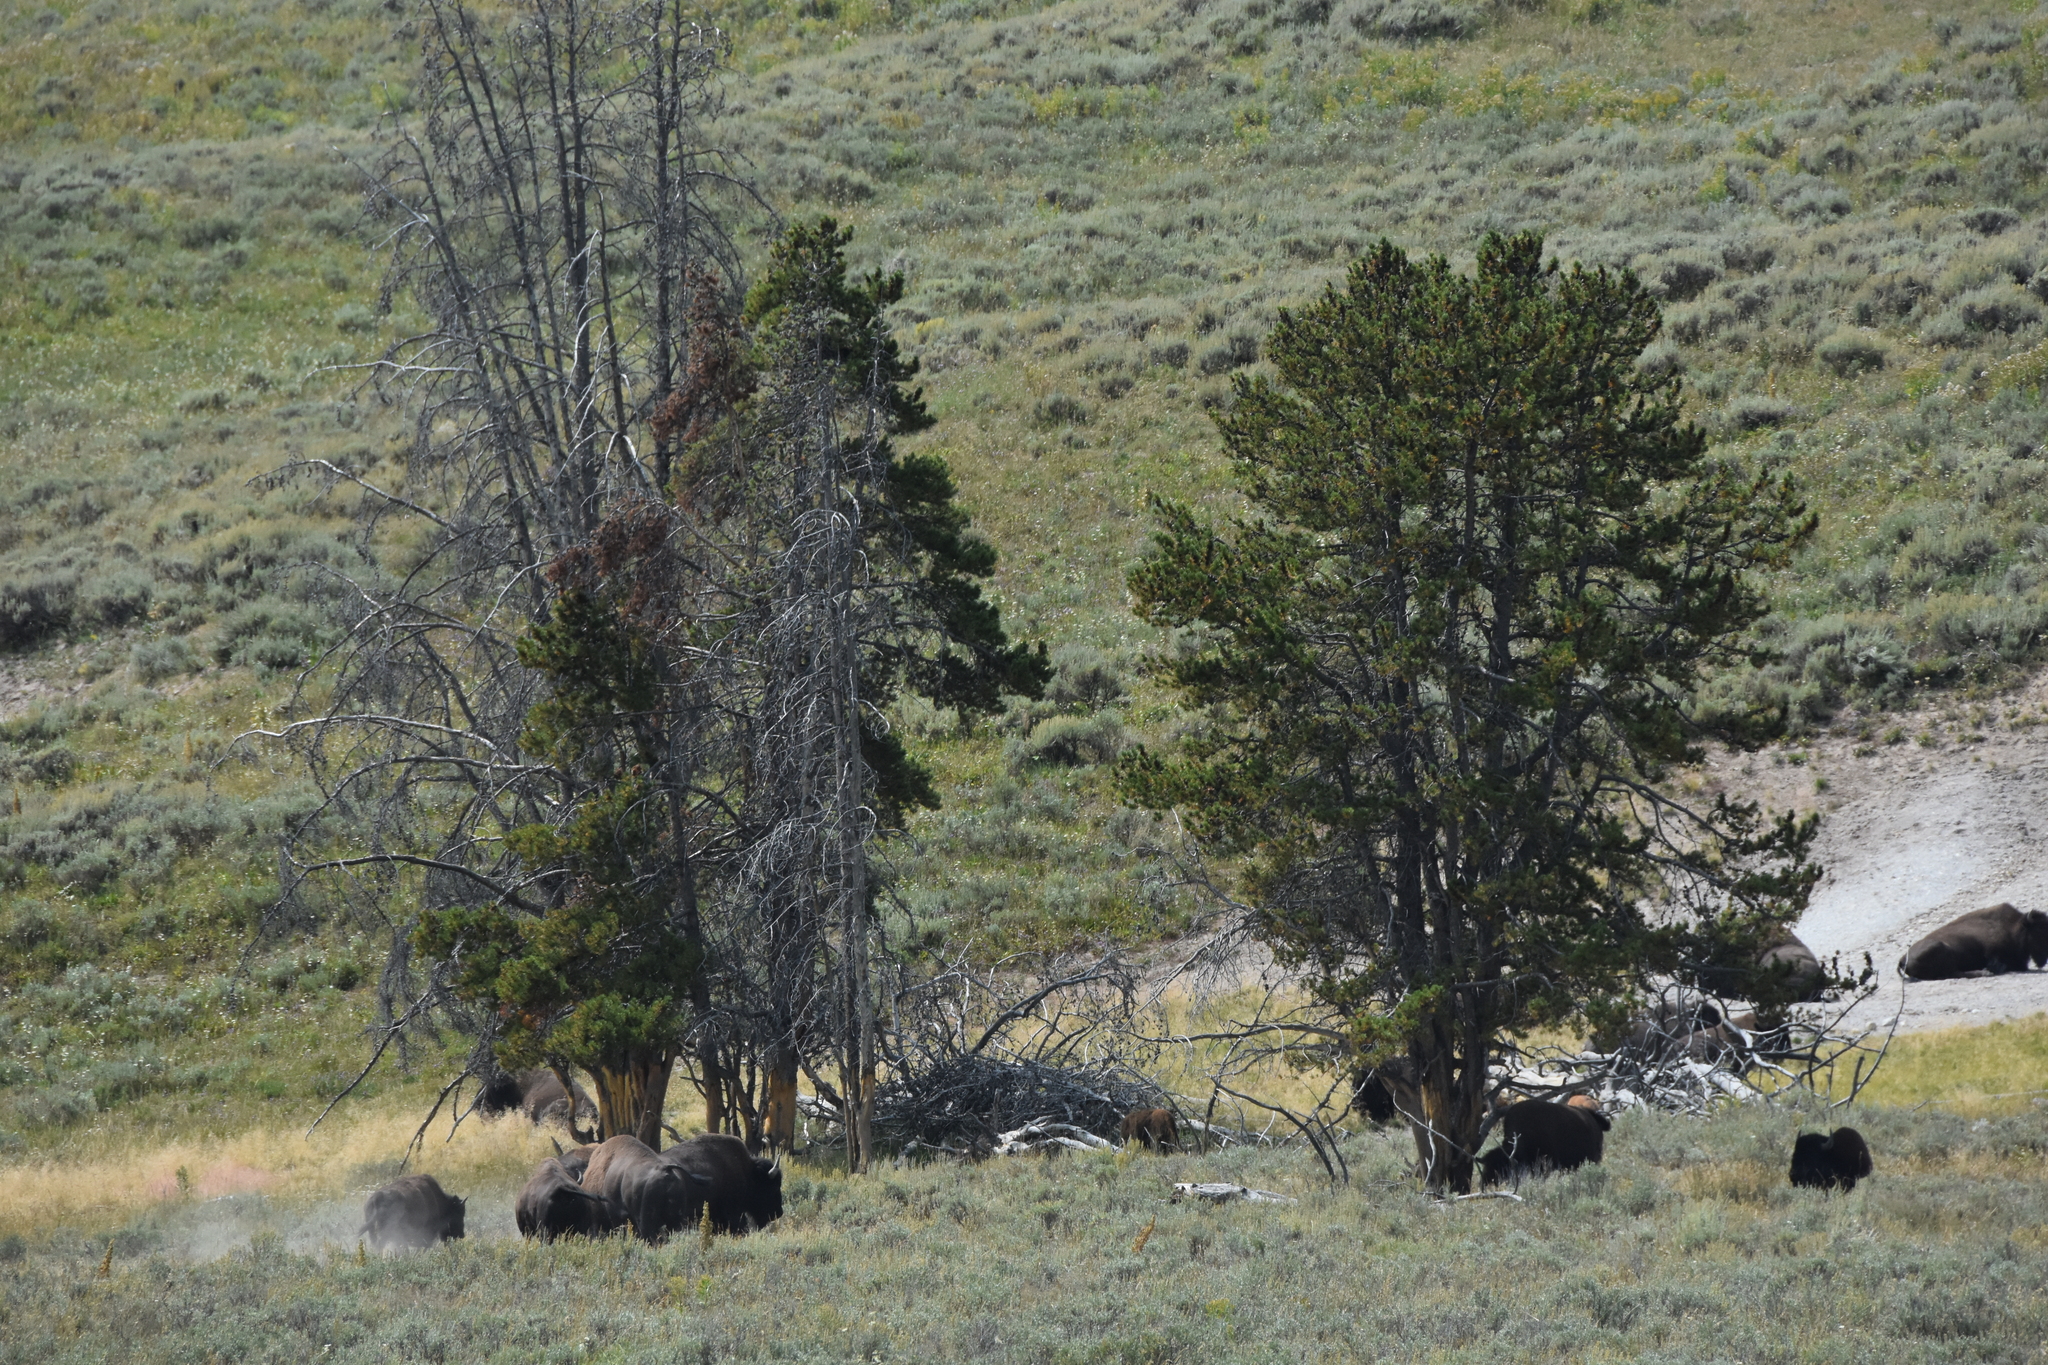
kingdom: Animalia
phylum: Chordata
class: Mammalia
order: Artiodactyla
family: Bovidae
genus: Bison
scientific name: Bison bison
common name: American bison
